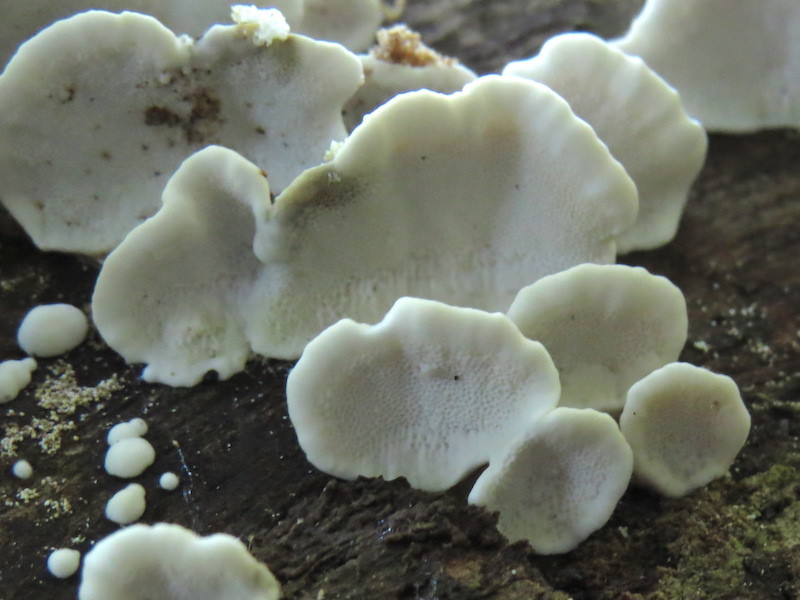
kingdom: Fungi
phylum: Basidiomycota
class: Agaricomycetes
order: Polyporales
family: Polyporaceae
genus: Trametes
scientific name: Trametes versicolor
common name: Turkeytail
